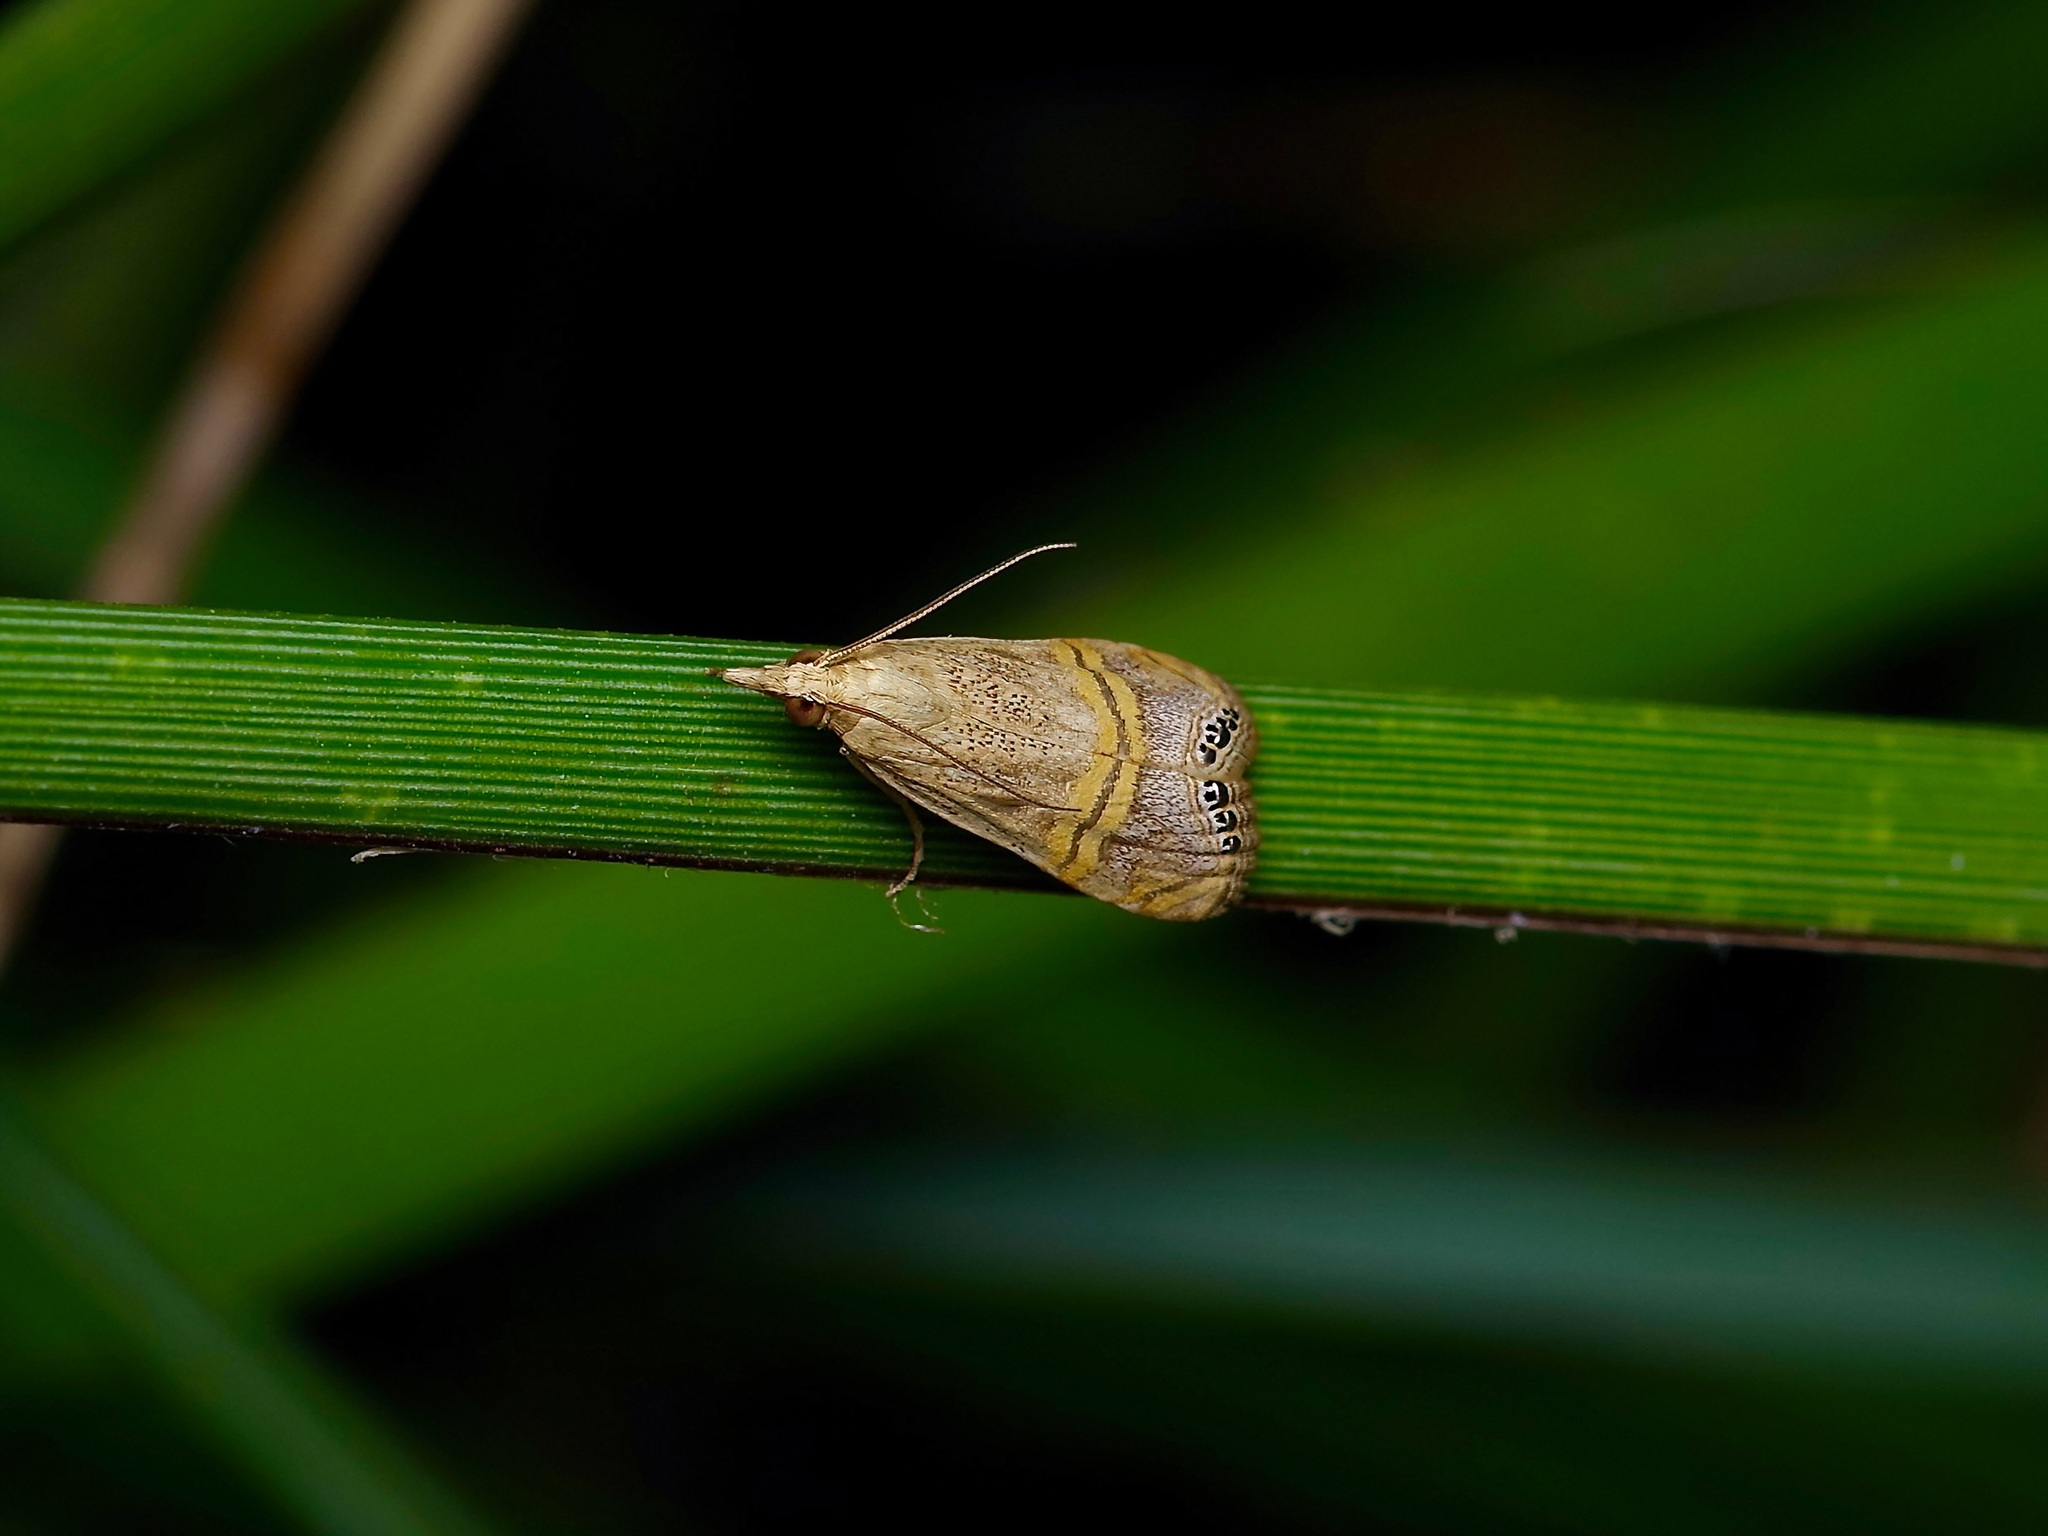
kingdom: Animalia
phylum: Arthropoda
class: Insecta
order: Lepidoptera
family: Crambidae
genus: Euchromius
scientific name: Euchromius ocellea
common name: Necklace veneer moth
